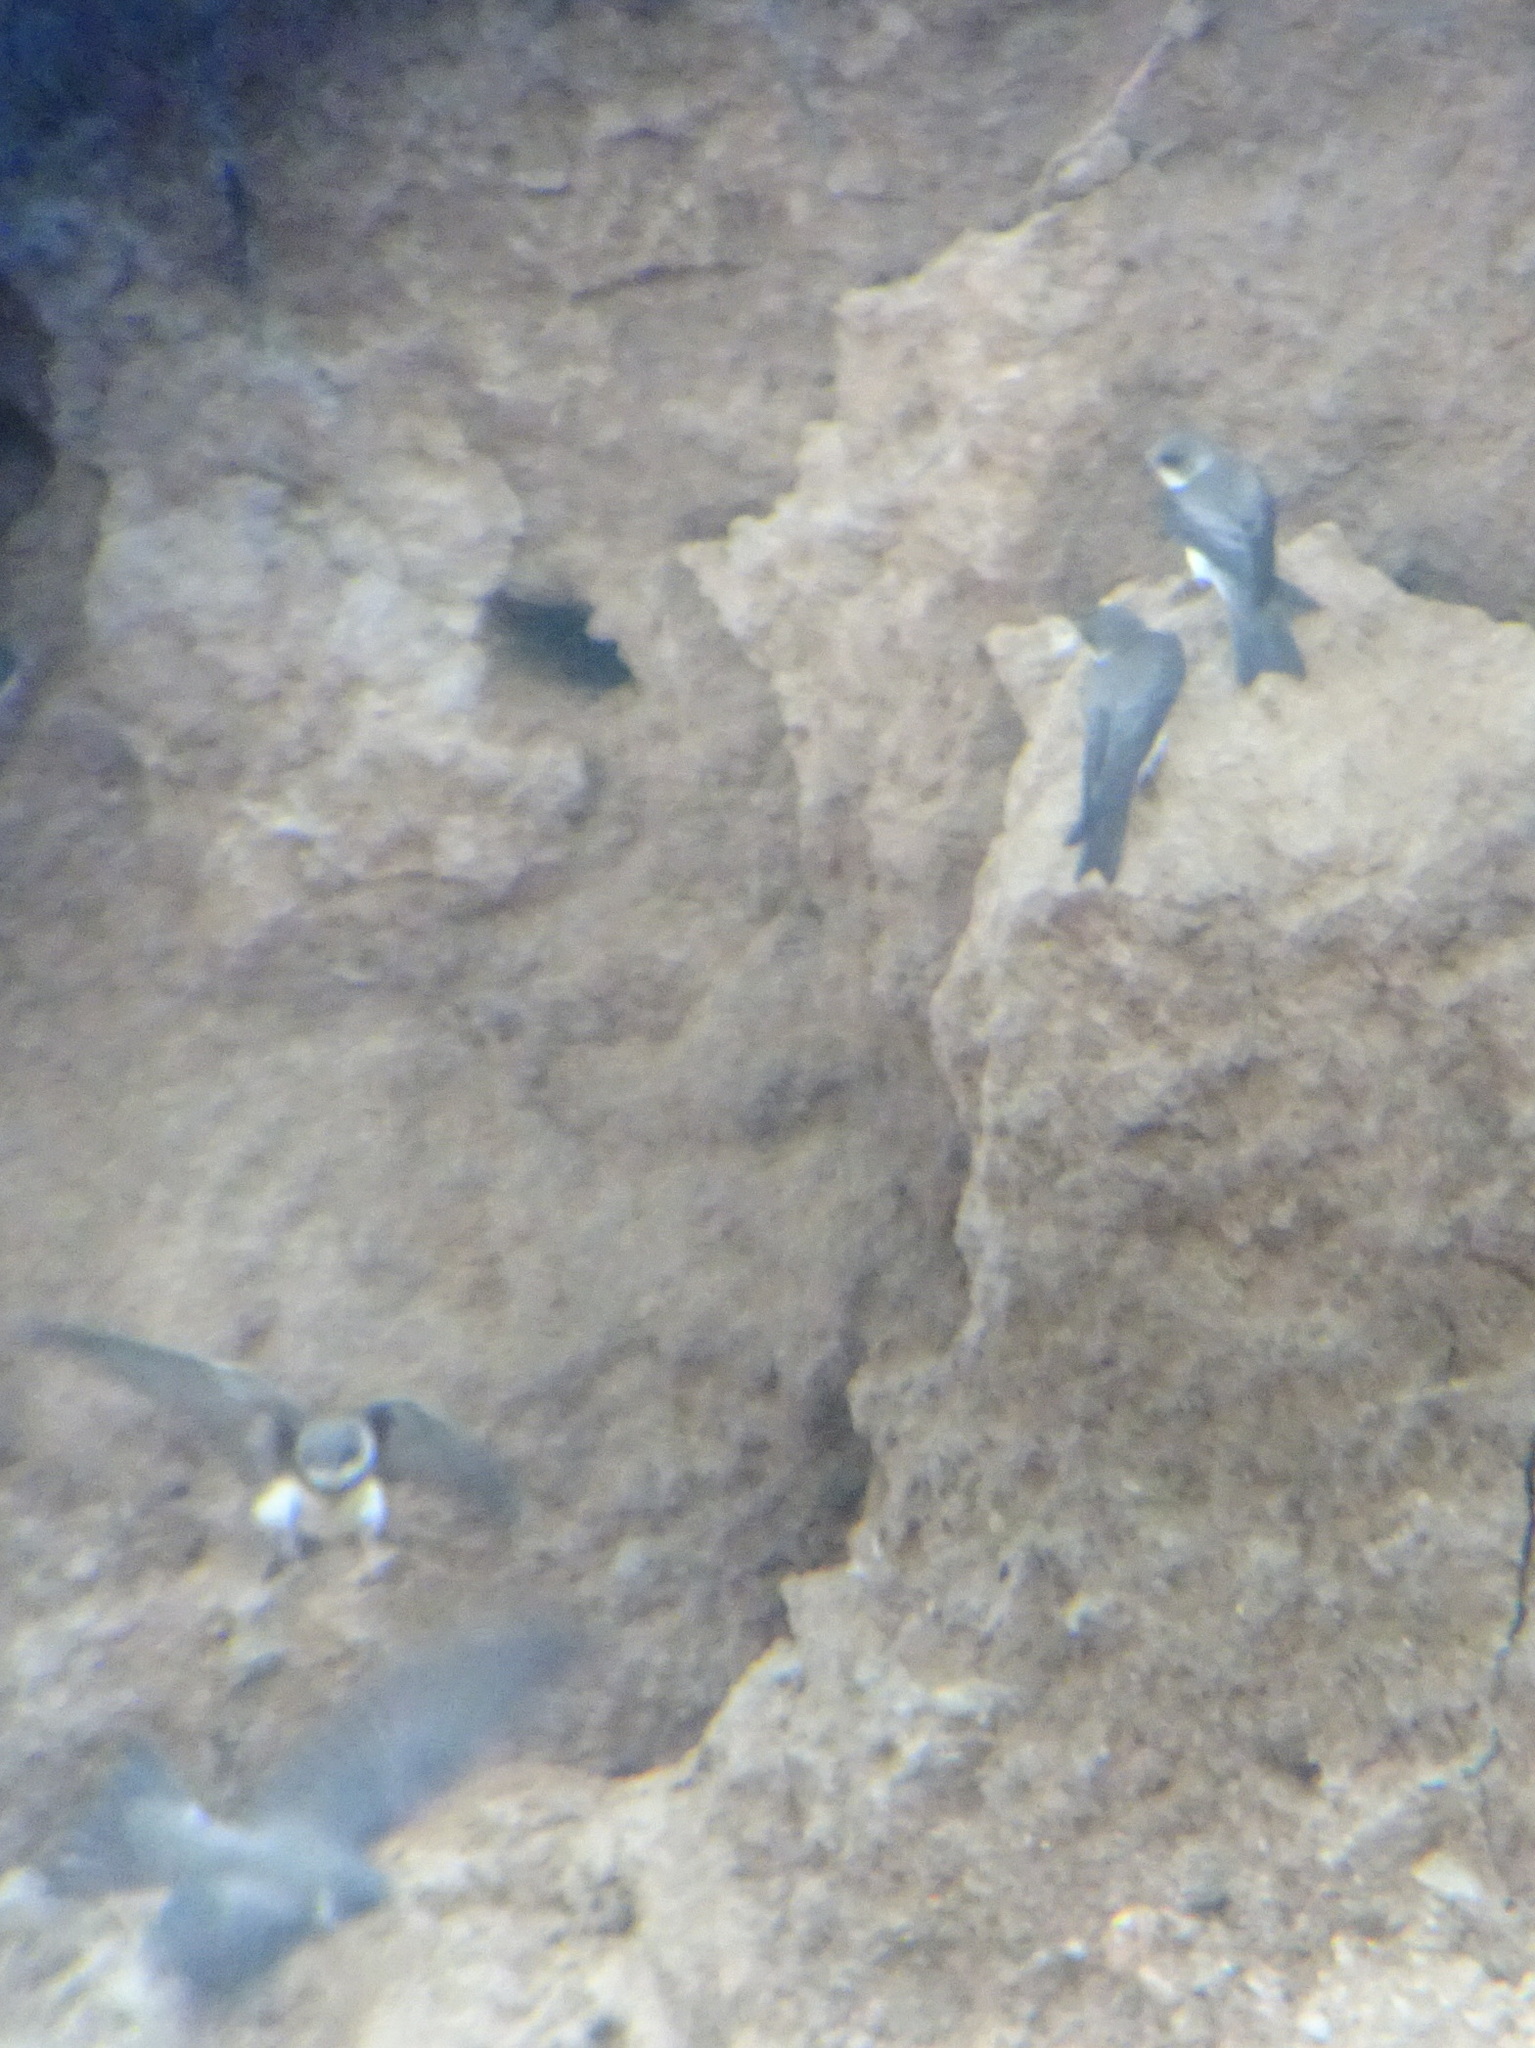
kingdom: Animalia
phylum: Chordata
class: Aves
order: Passeriformes
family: Hirundinidae
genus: Riparia
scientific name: Riparia riparia
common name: Sand martin
